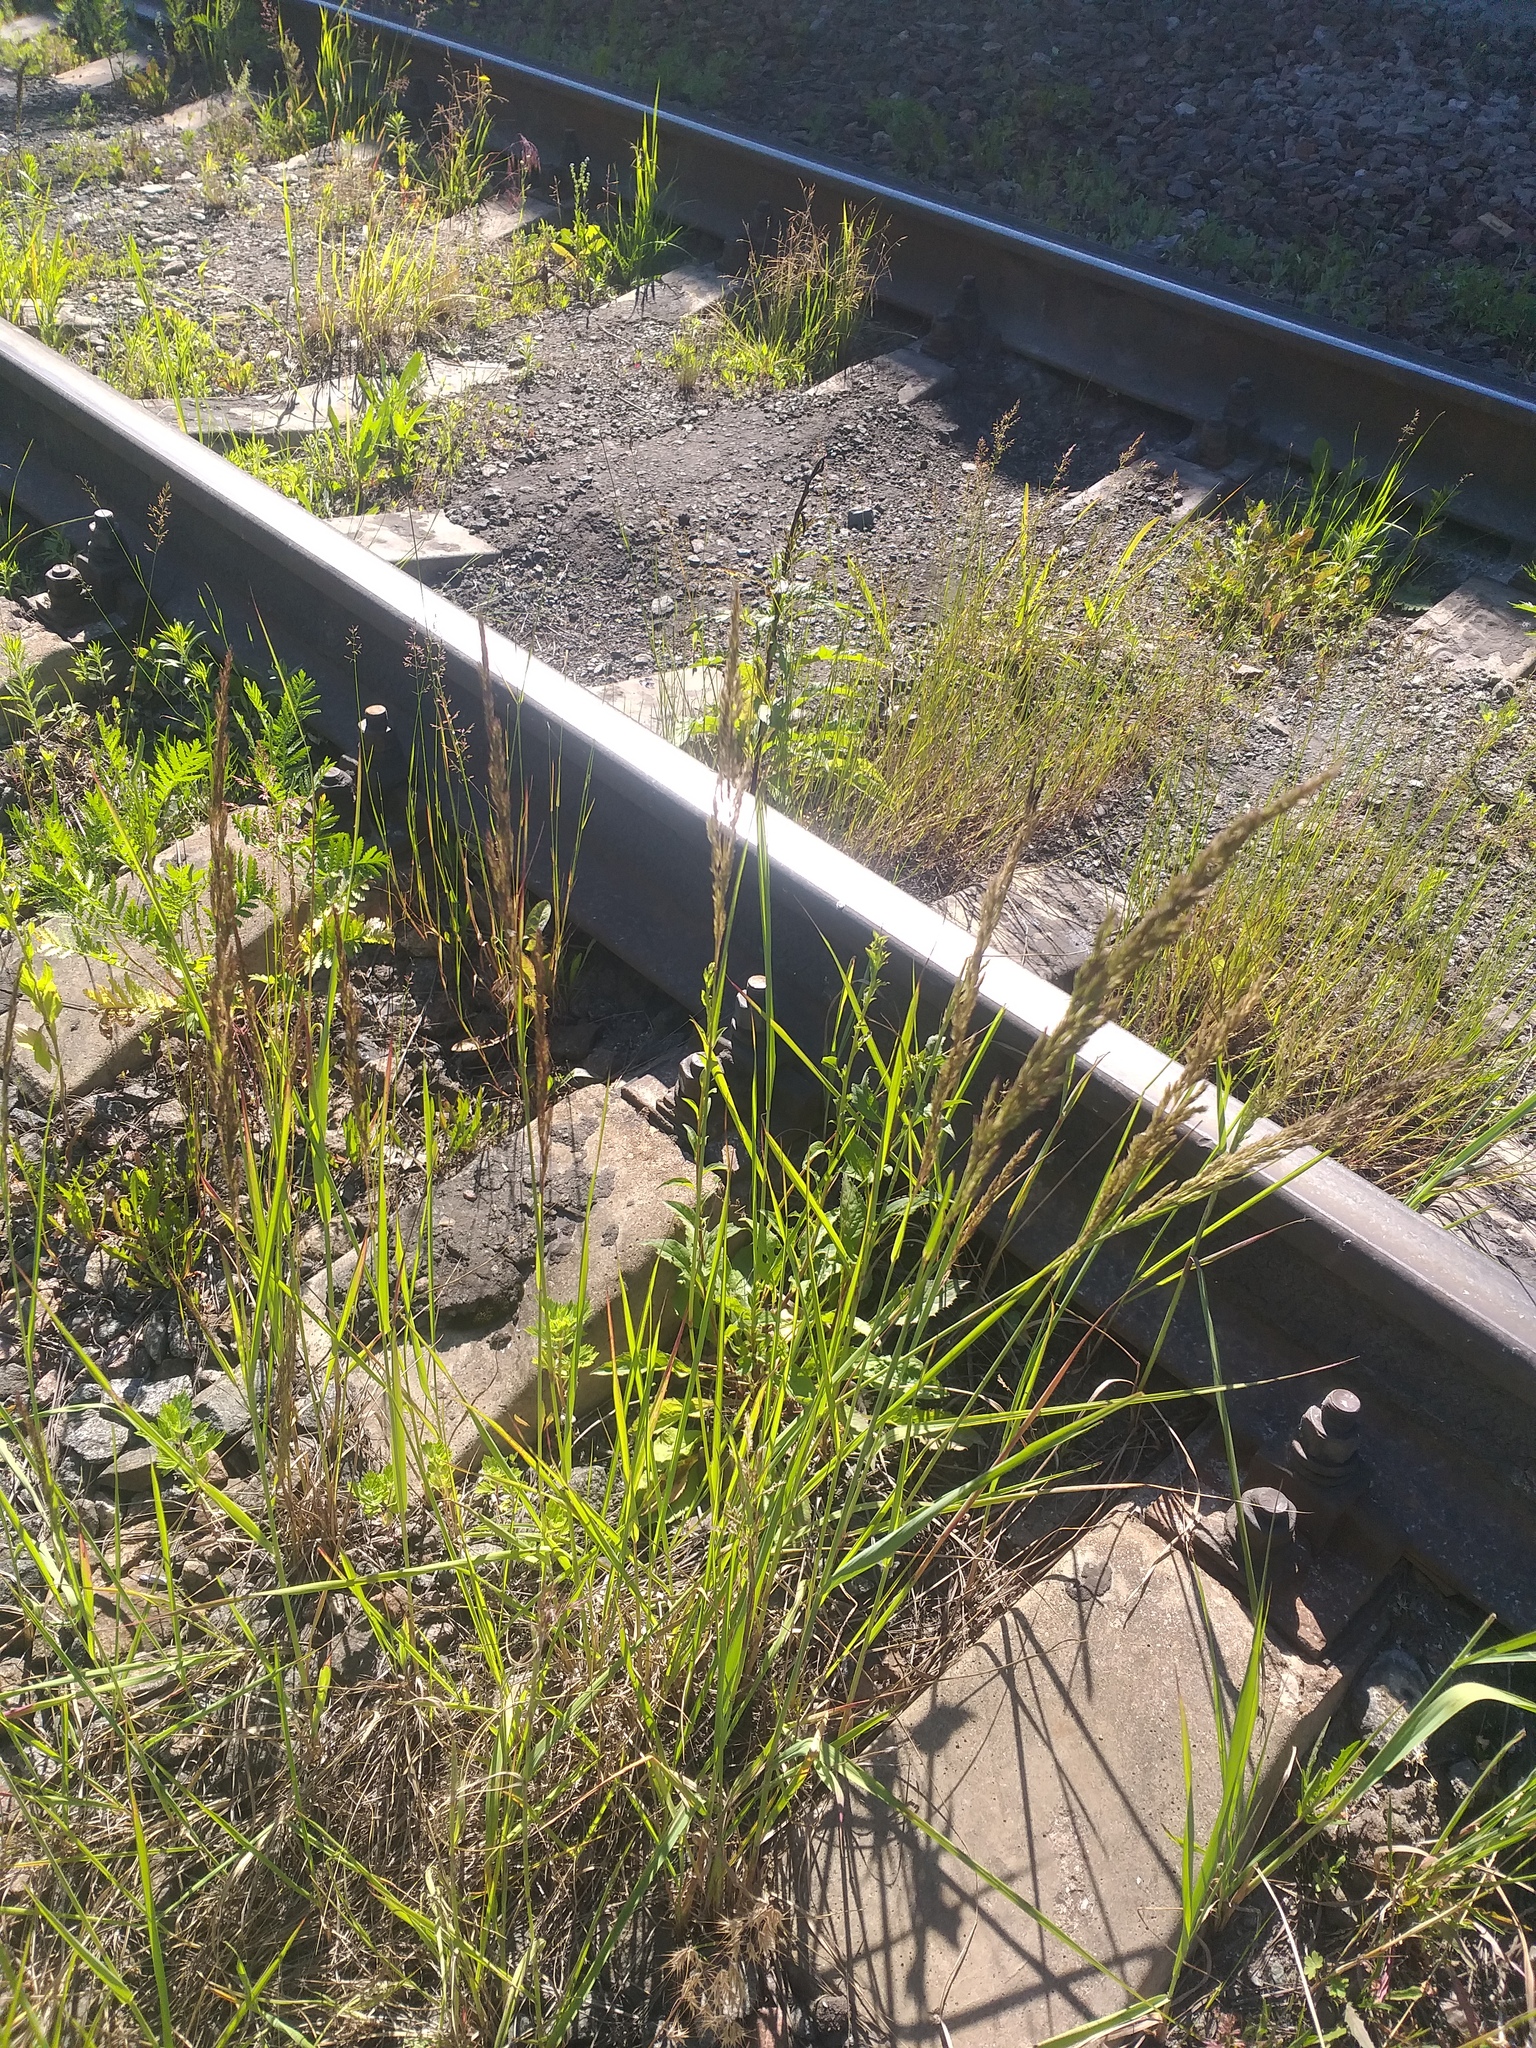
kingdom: Plantae
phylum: Tracheophyta
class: Liliopsida
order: Poales
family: Poaceae
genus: Calamagrostis
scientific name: Calamagrostis epigejos
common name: Wood small-reed
